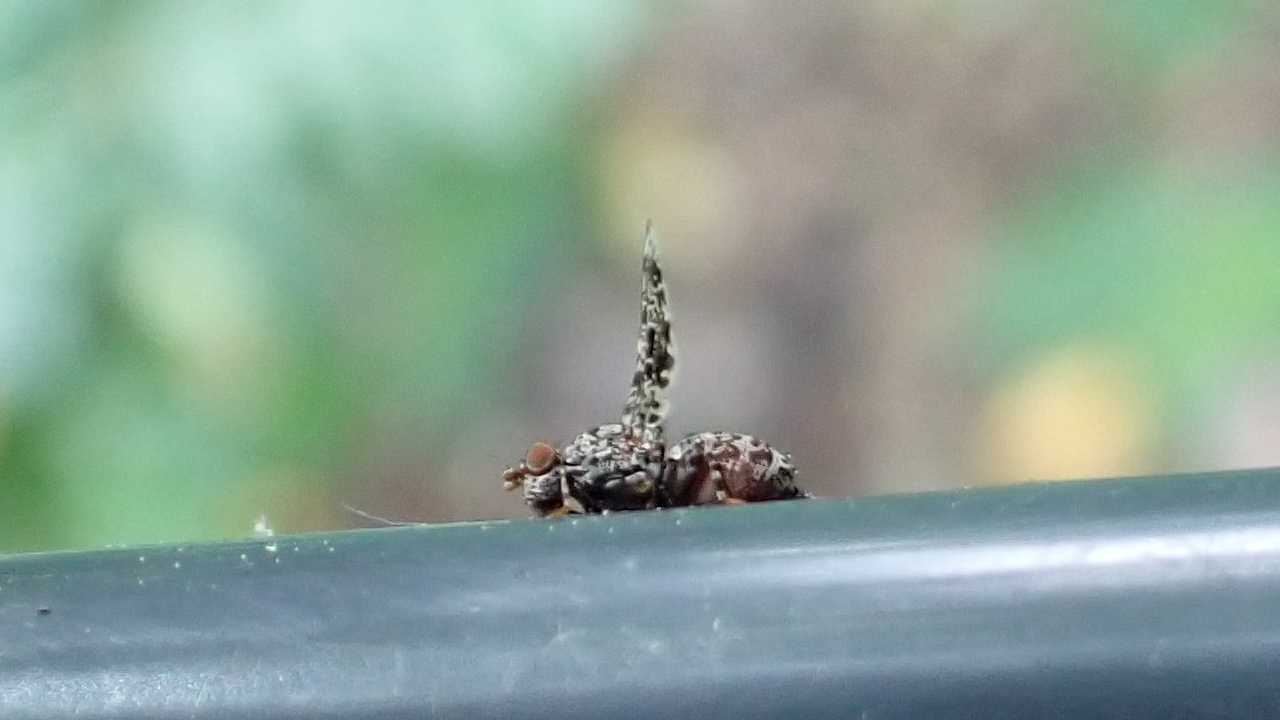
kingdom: Animalia
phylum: Arthropoda
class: Insecta
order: Diptera
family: Ulidiidae
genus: Callopistromyia
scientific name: Callopistromyia annulipes
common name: Peacock fly
